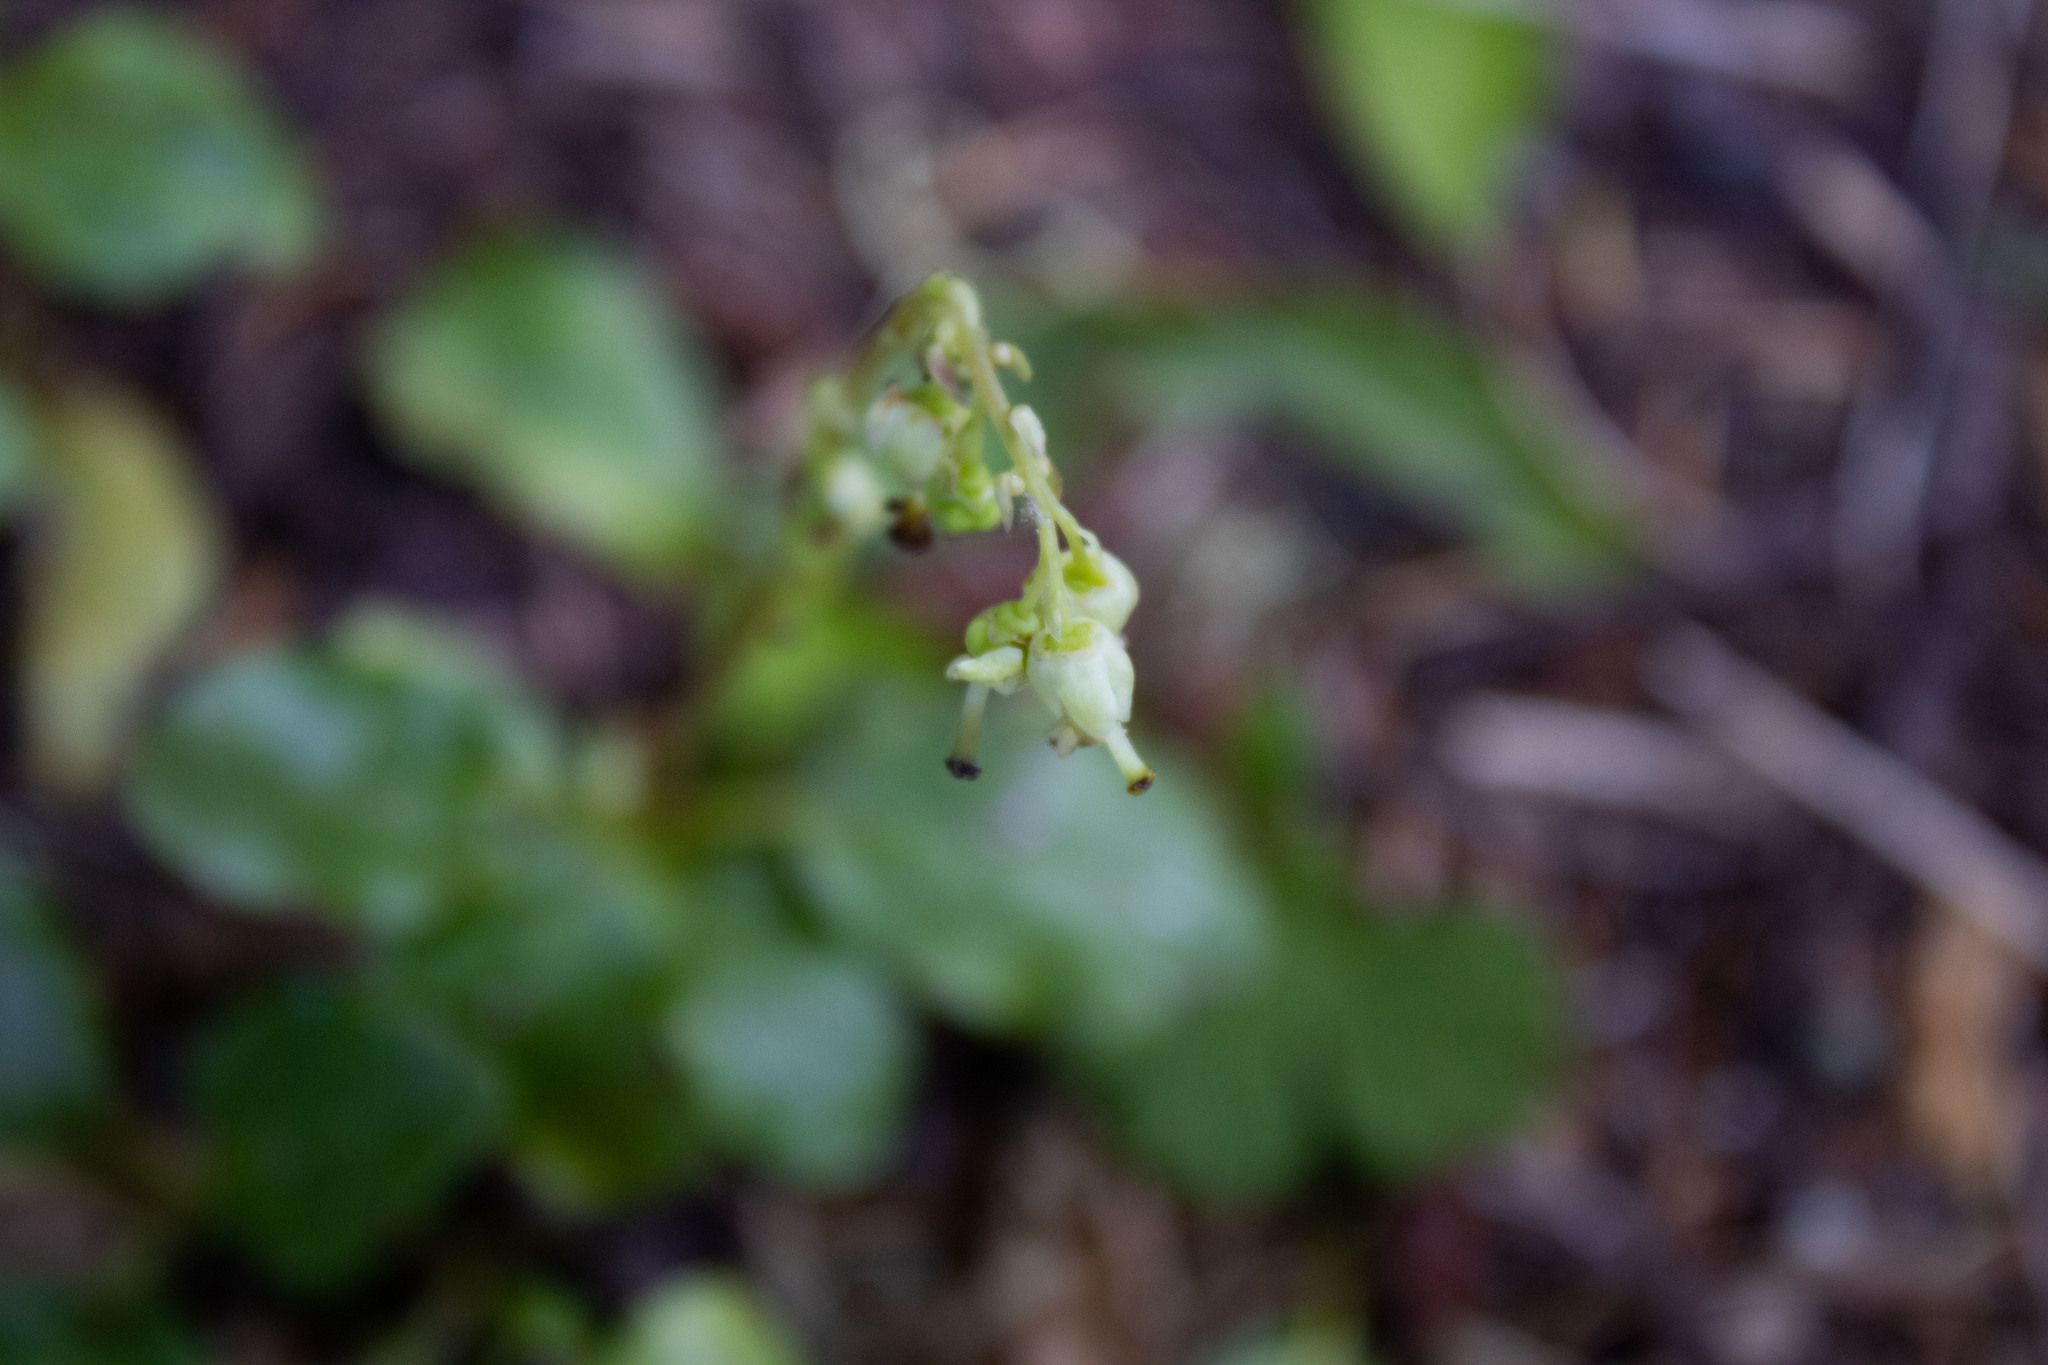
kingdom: Plantae
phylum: Tracheophyta
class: Magnoliopsida
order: Ericales
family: Ericaceae
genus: Orthilia
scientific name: Orthilia secunda
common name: One-sided orthilia
